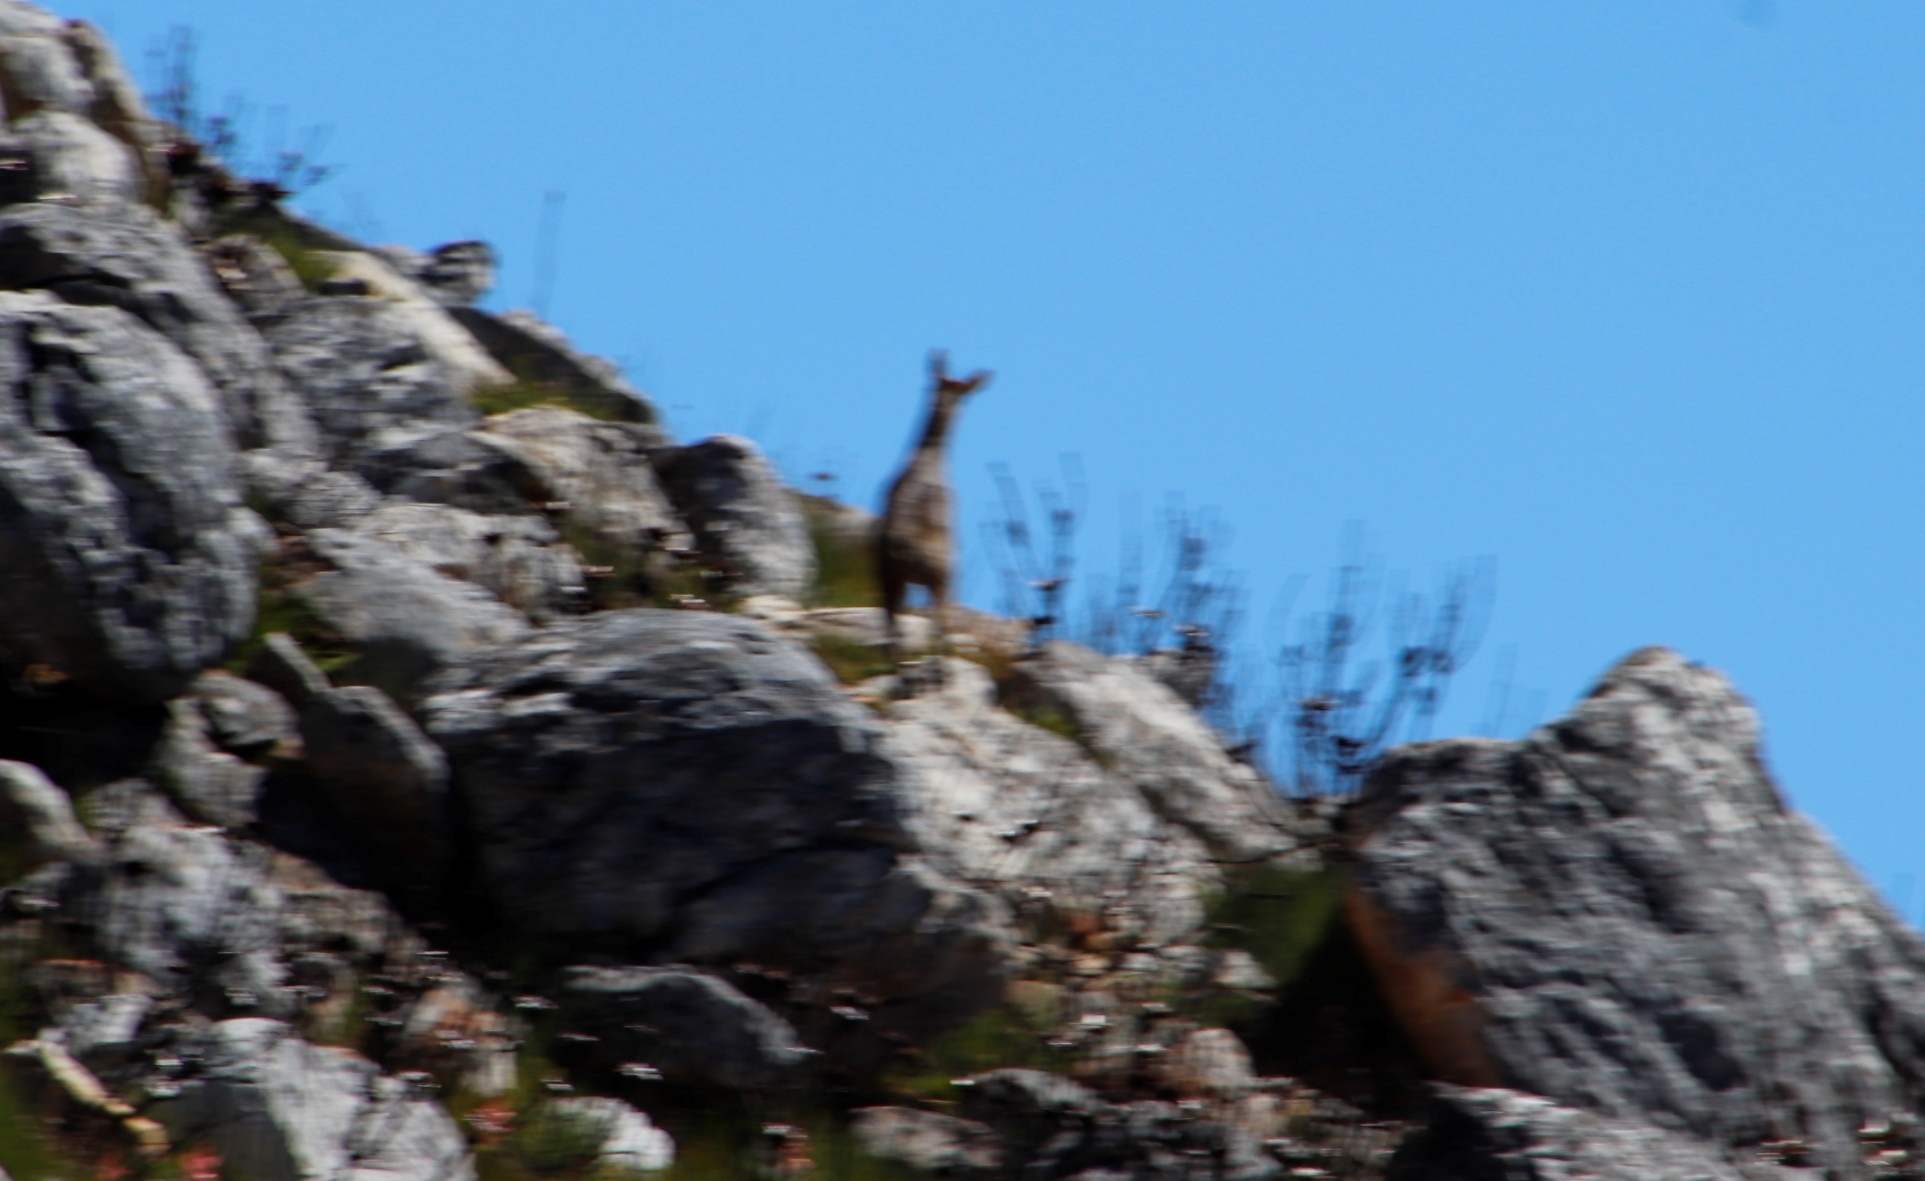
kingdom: Animalia
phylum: Chordata
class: Mammalia
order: Artiodactyla
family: Bovidae
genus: Oreotragus
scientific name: Oreotragus oreotragus
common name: Klipspringer
